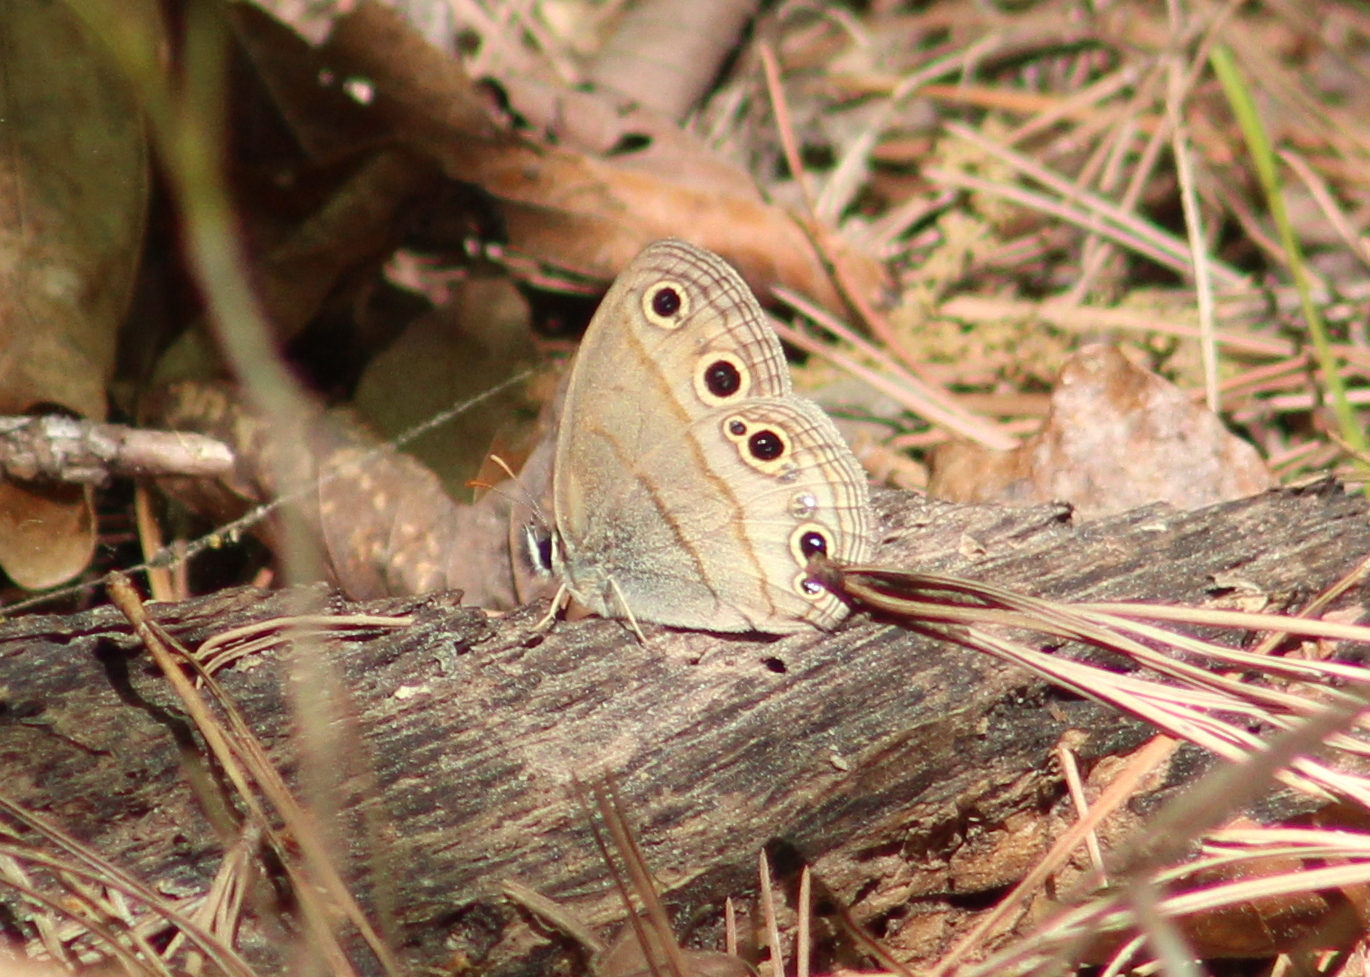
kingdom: Animalia
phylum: Arthropoda
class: Insecta
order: Lepidoptera
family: Nymphalidae
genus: Euptychia
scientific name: Euptychia cymela
